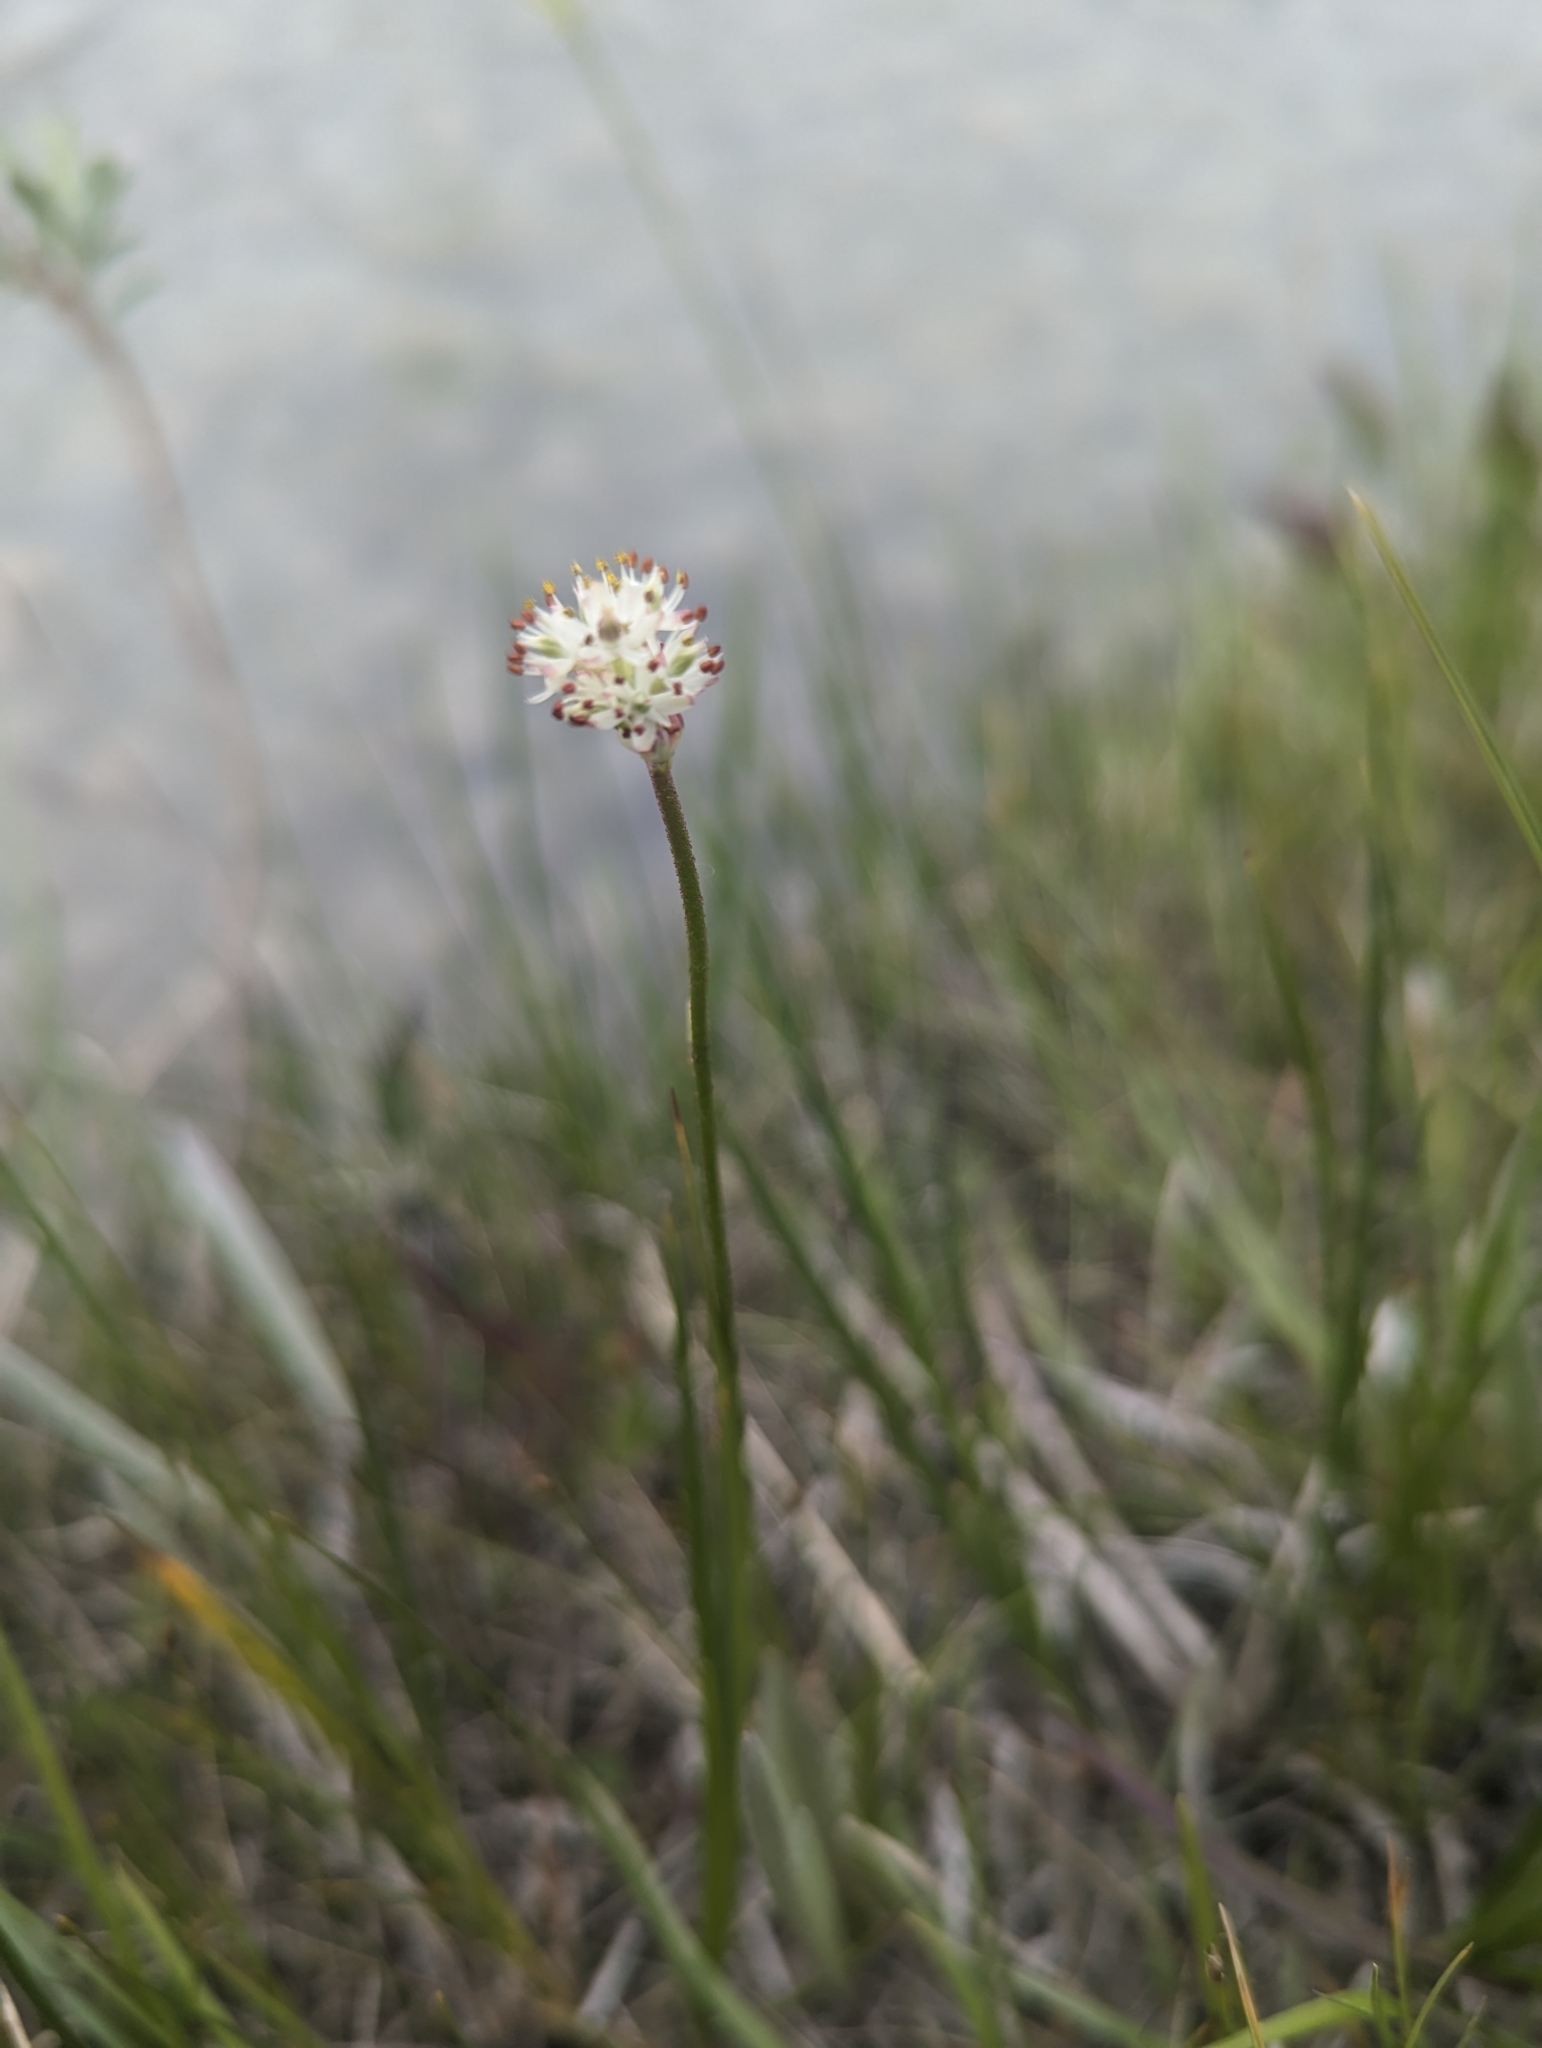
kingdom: Plantae
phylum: Tracheophyta
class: Liliopsida
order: Alismatales
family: Tofieldiaceae
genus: Triantha
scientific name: Triantha glutinosa
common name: Glutinous tofieldia
